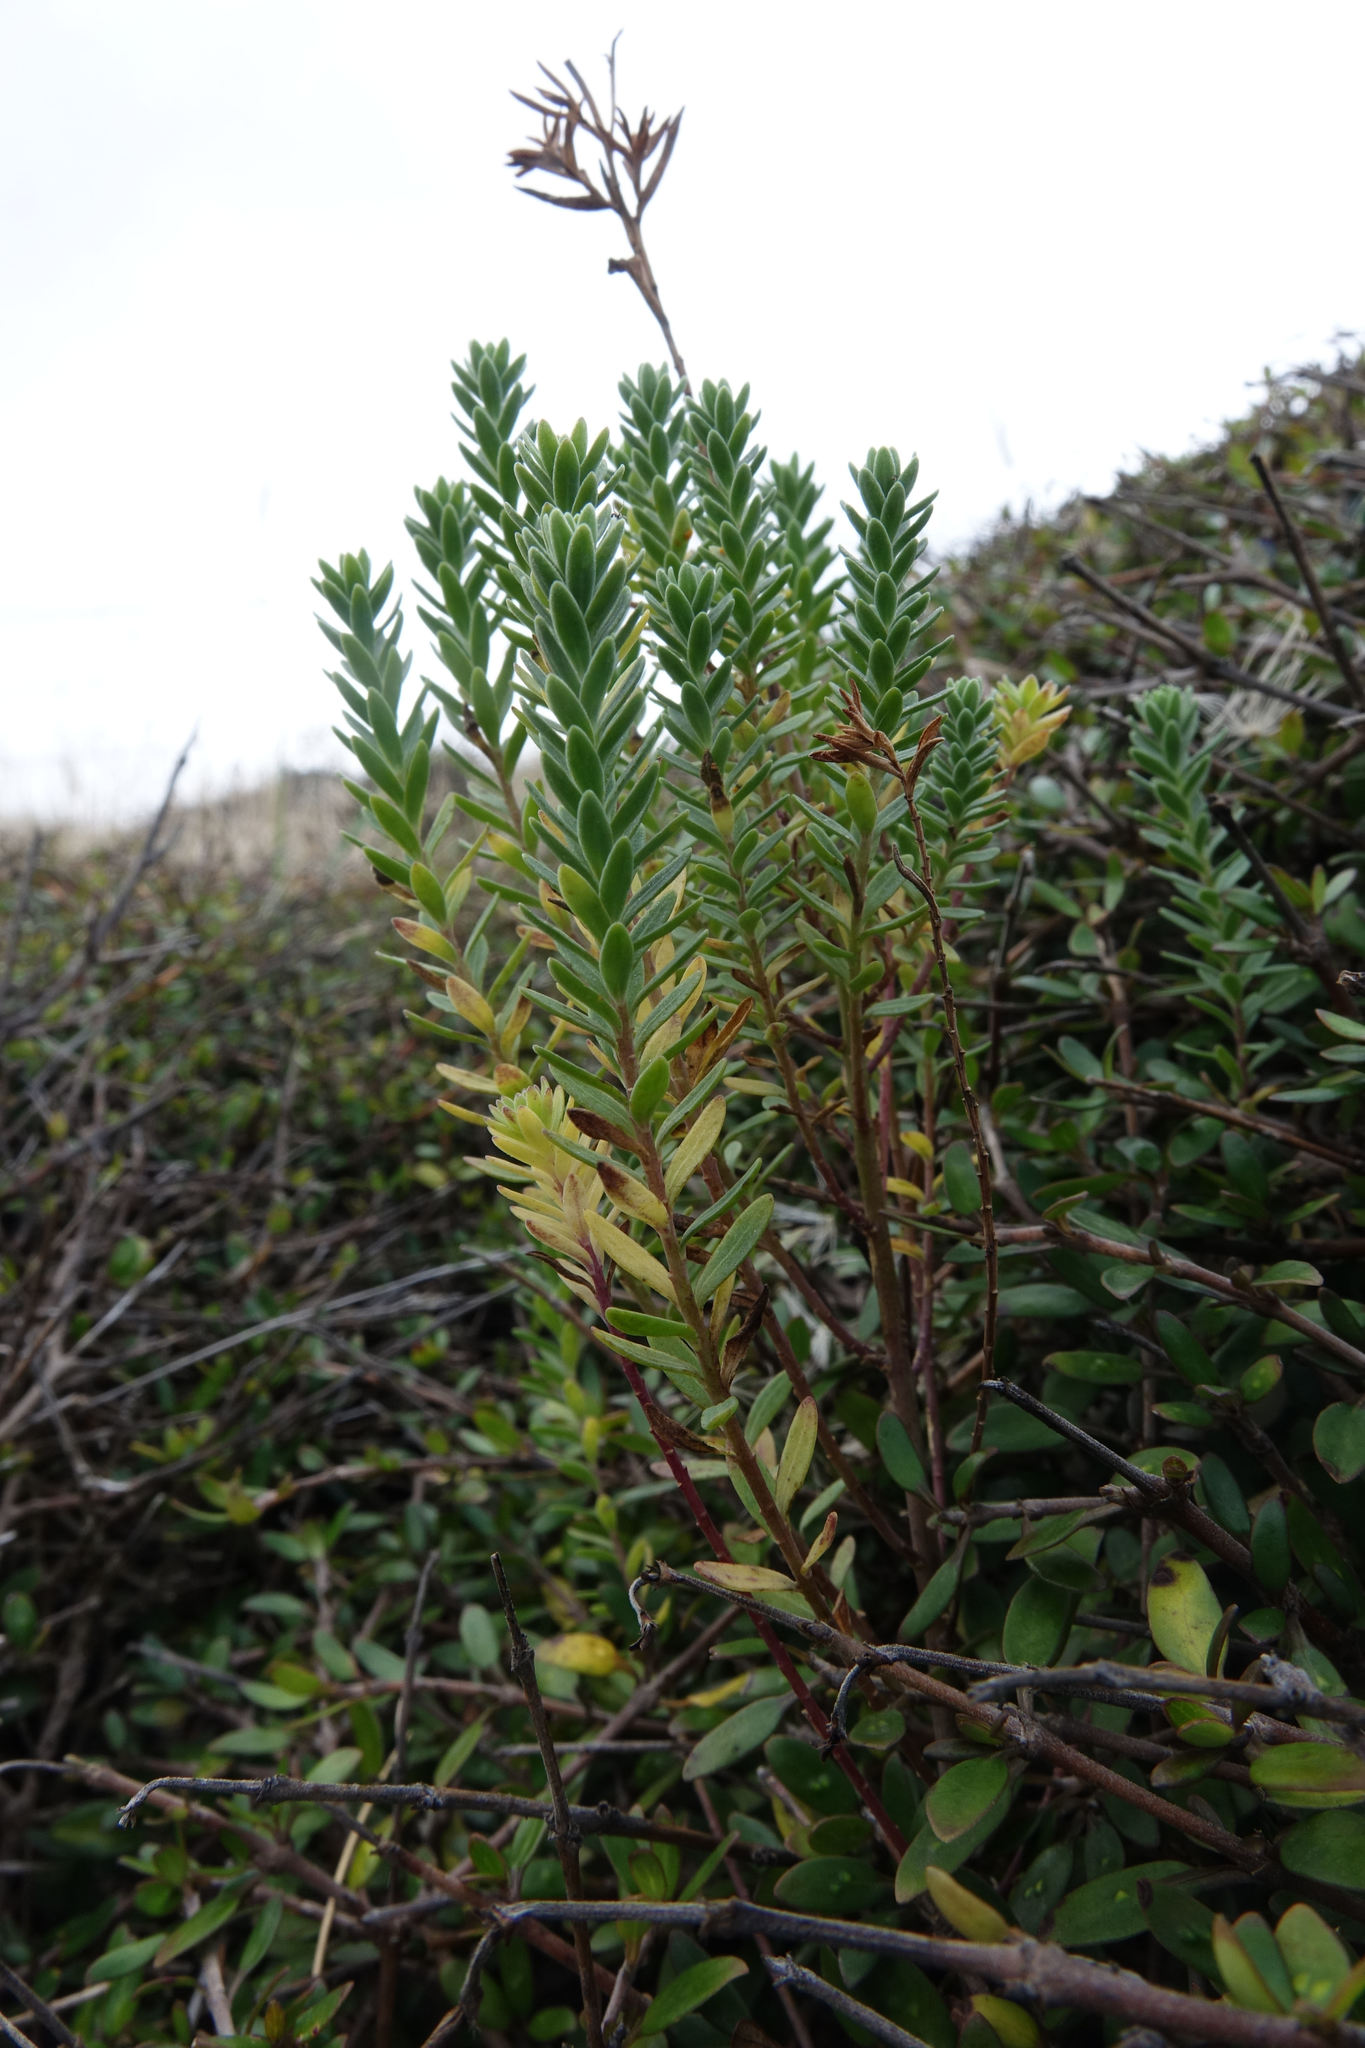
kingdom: Plantae
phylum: Tracheophyta
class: Magnoliopsida
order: Malpighiales
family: Linaceae
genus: Linum
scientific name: Linum monogynum
